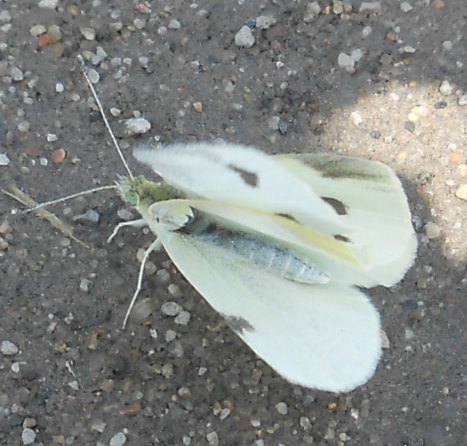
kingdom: Animalia
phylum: Arthropoda
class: Insecta
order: Lepidoptera
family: Pieridae
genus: Pieris
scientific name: Pieris rapae
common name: Small white
